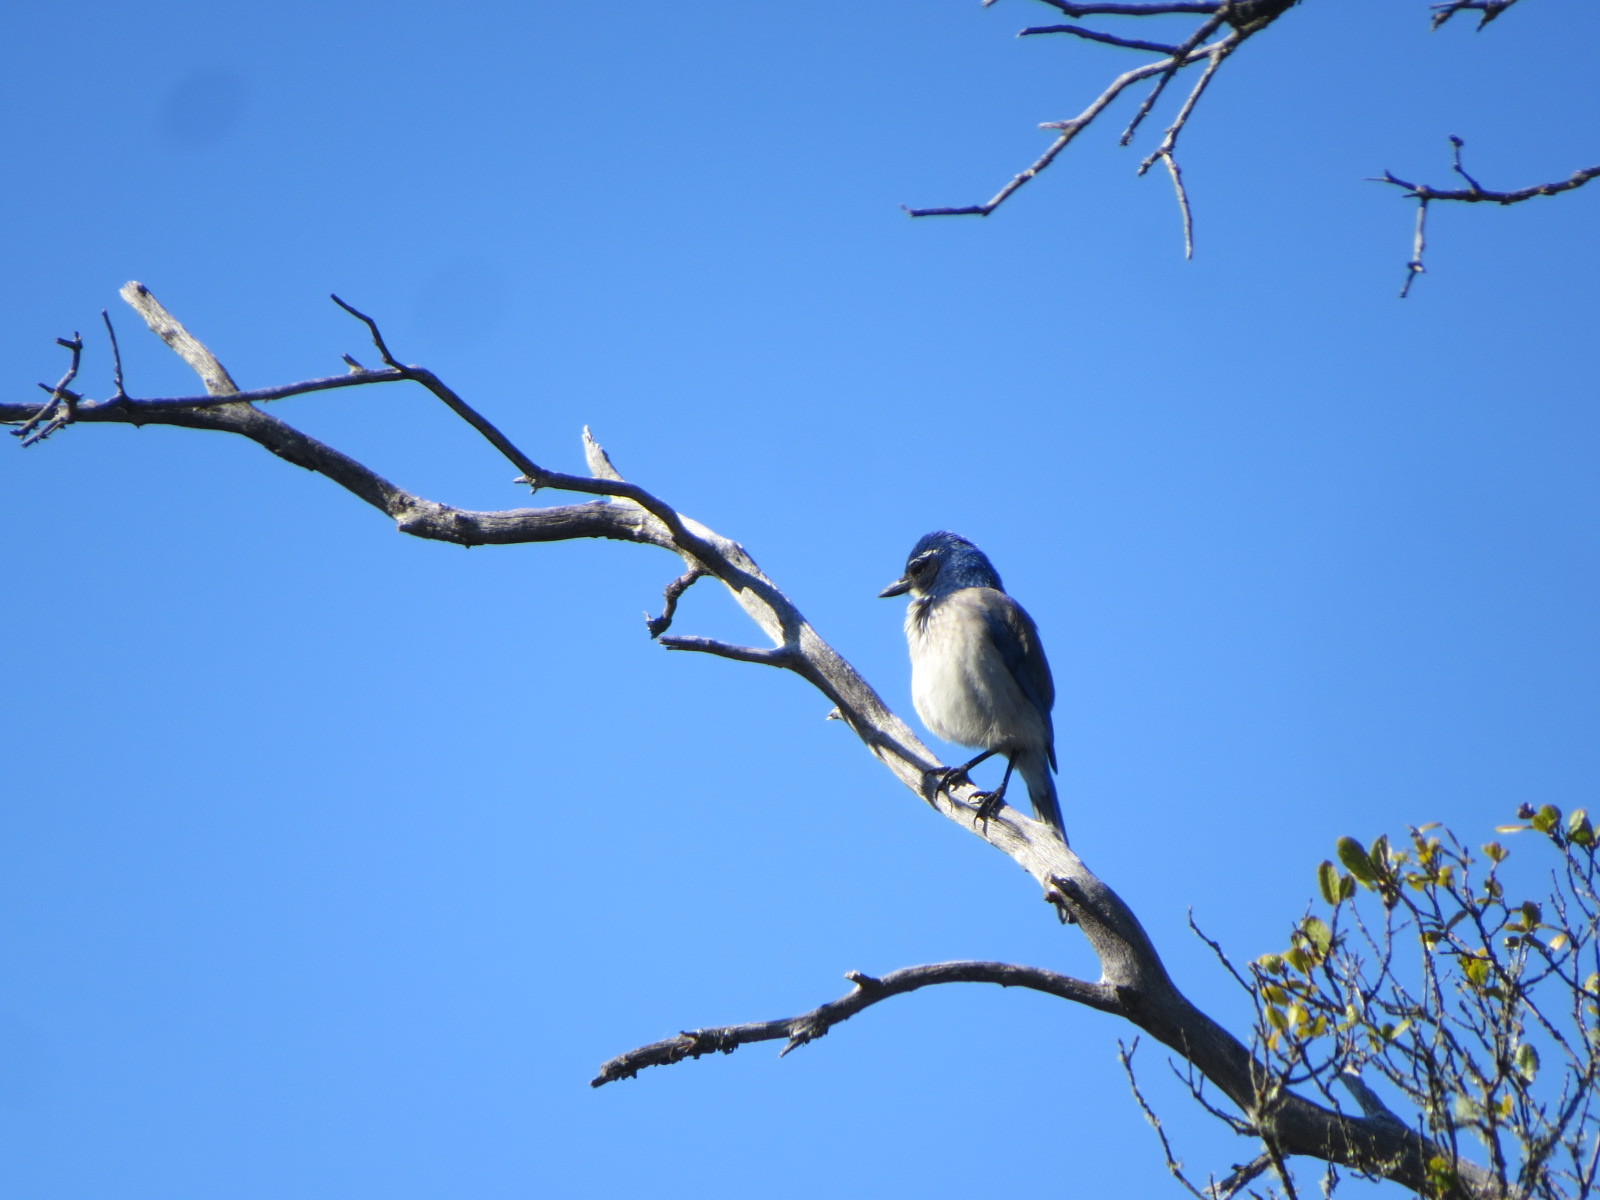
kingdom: Animalia
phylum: Chordata
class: Aves
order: Passeriformes
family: Corvidae
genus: Aphelocoma
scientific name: Aphelocoma californica
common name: California scrub-jay
